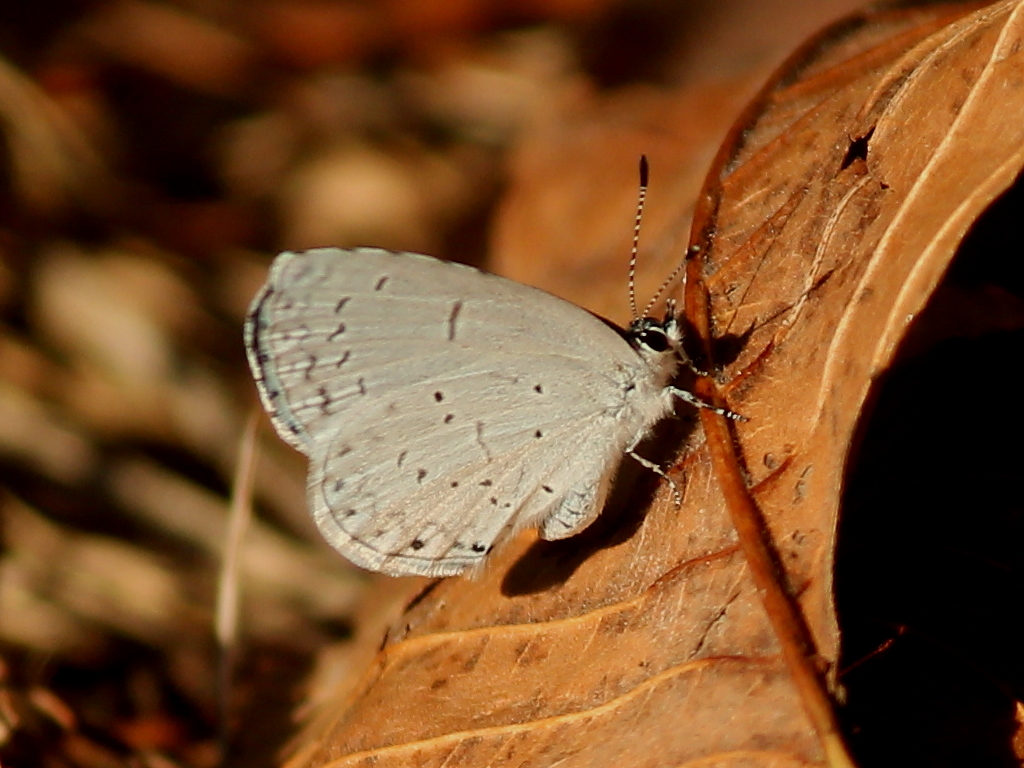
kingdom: Animalia
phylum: Arthropoda
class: Insecta
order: Lepidoptera
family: Lycaenidae
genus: Cyaniris
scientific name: Cyaniris neglecta
